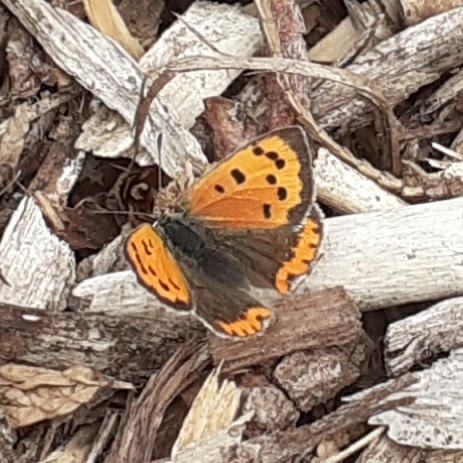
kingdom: Animalia
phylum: Arthropoda
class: Insecta
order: Lepidoptera
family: Lycaenidae
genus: Lycaena
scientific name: Lycaena phlaeas
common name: Small copper
